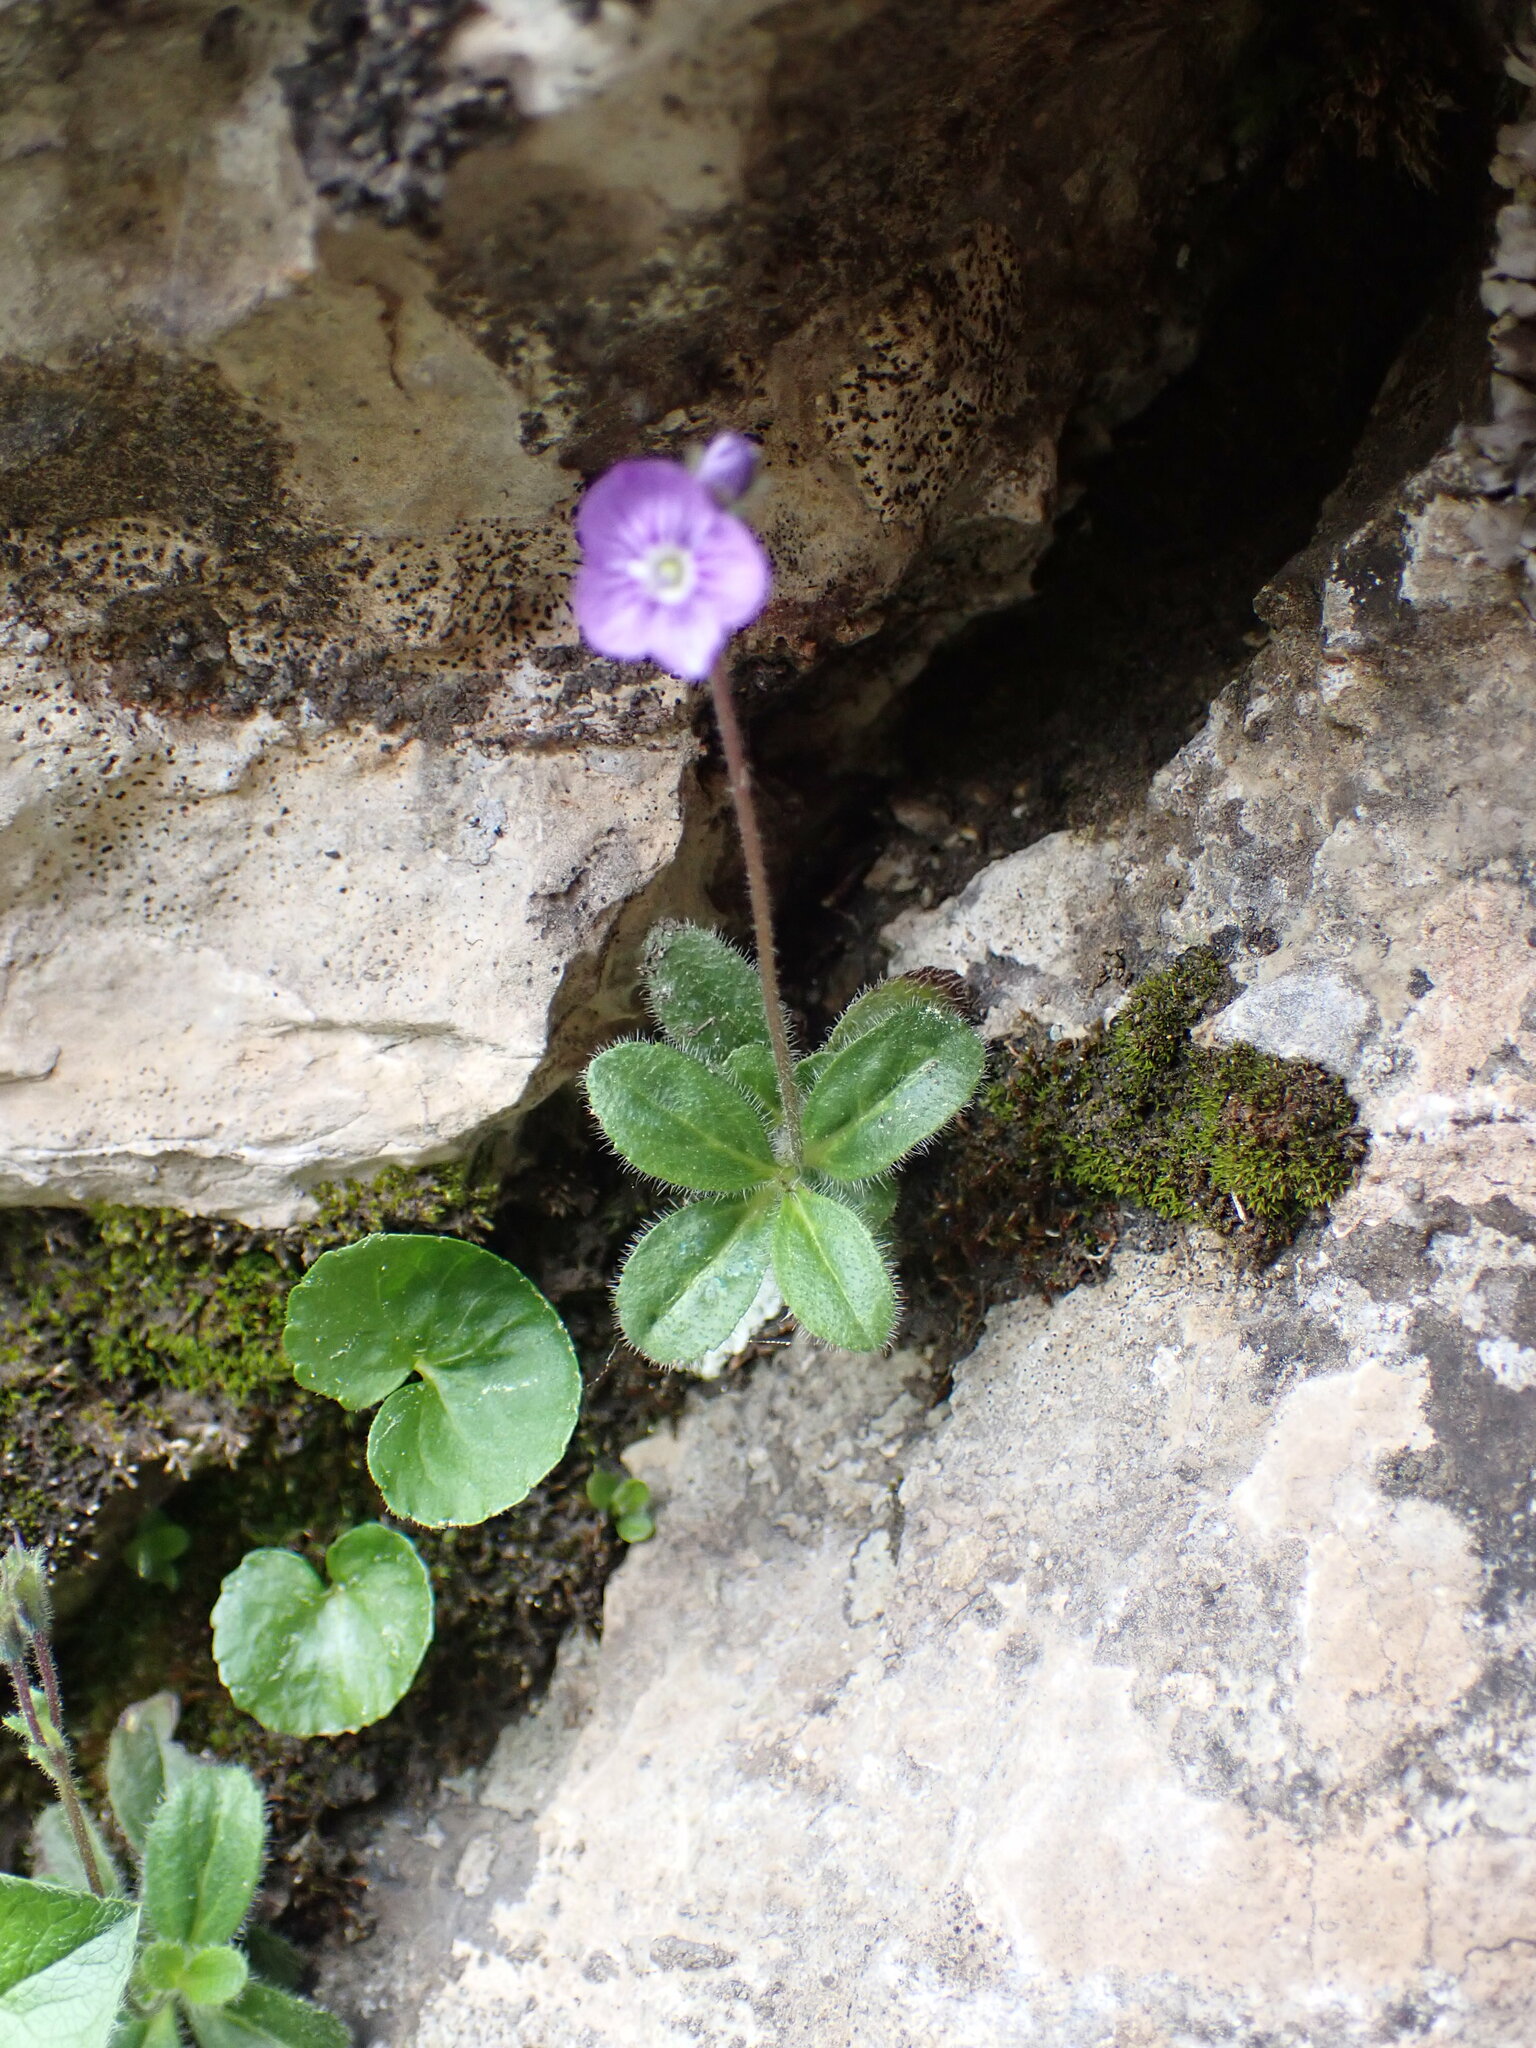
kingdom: Plantae
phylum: Tracheophyta
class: Magnoliopsida
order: Lamiales
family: Plantaginaceae
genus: Veronica
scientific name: Veronica aphylla
